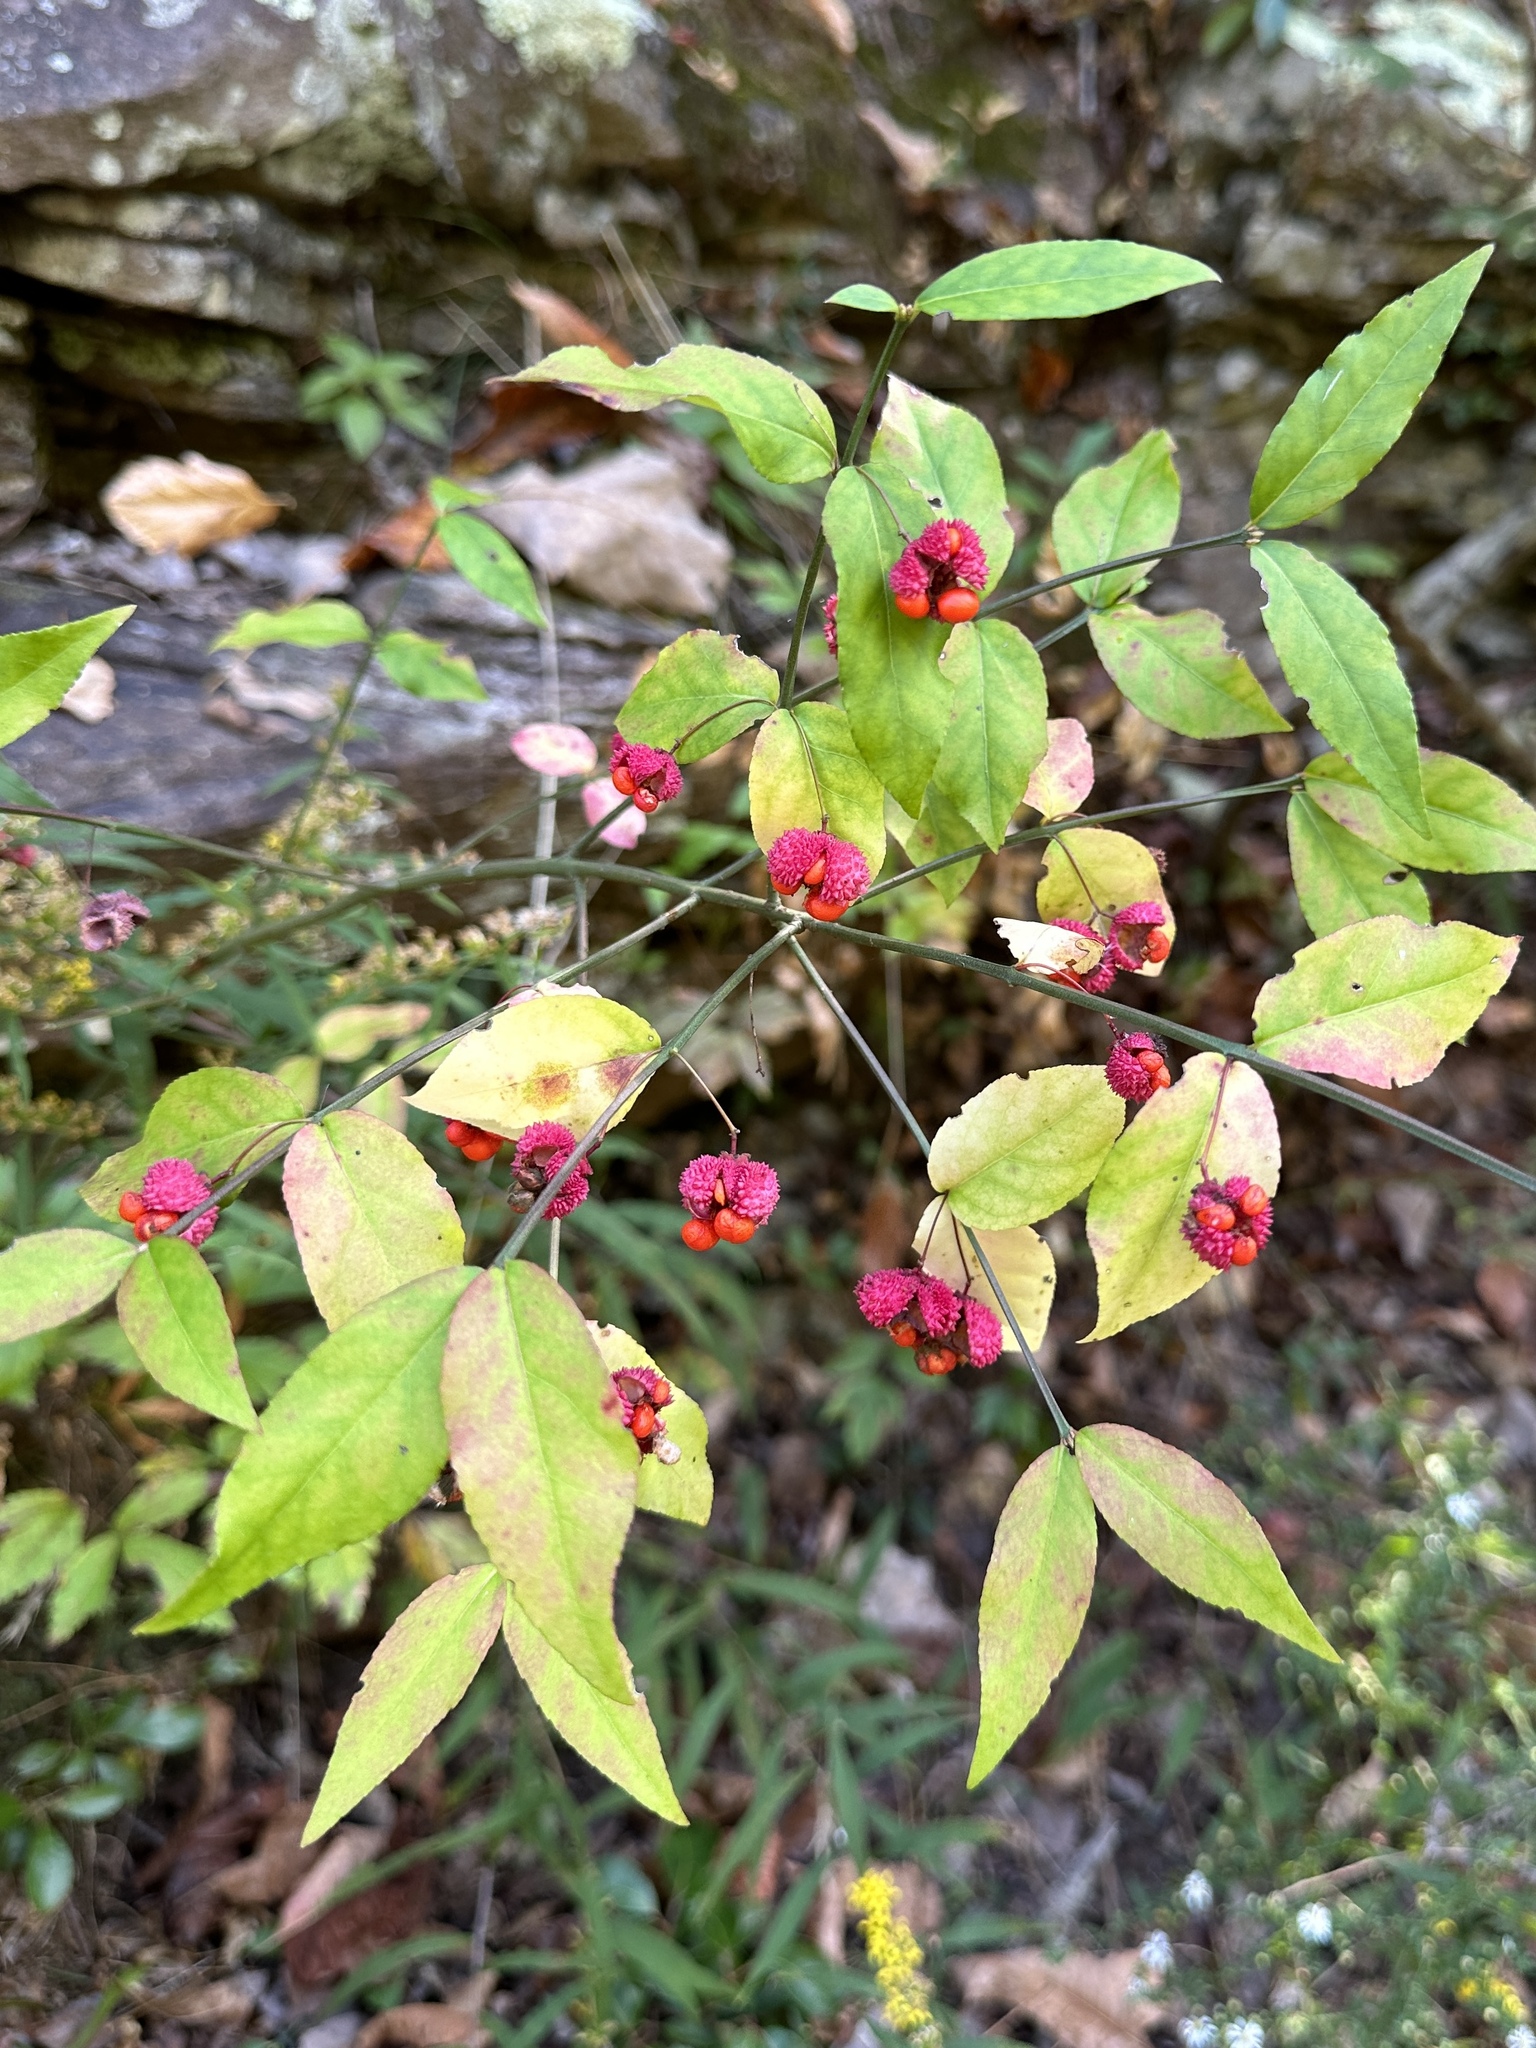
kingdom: Plantae
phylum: Tracheophyta
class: Magnoliopsida
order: Celastrales
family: Celastraceae
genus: Euonymus
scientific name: Euonymus americanus
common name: Bursting-heart
